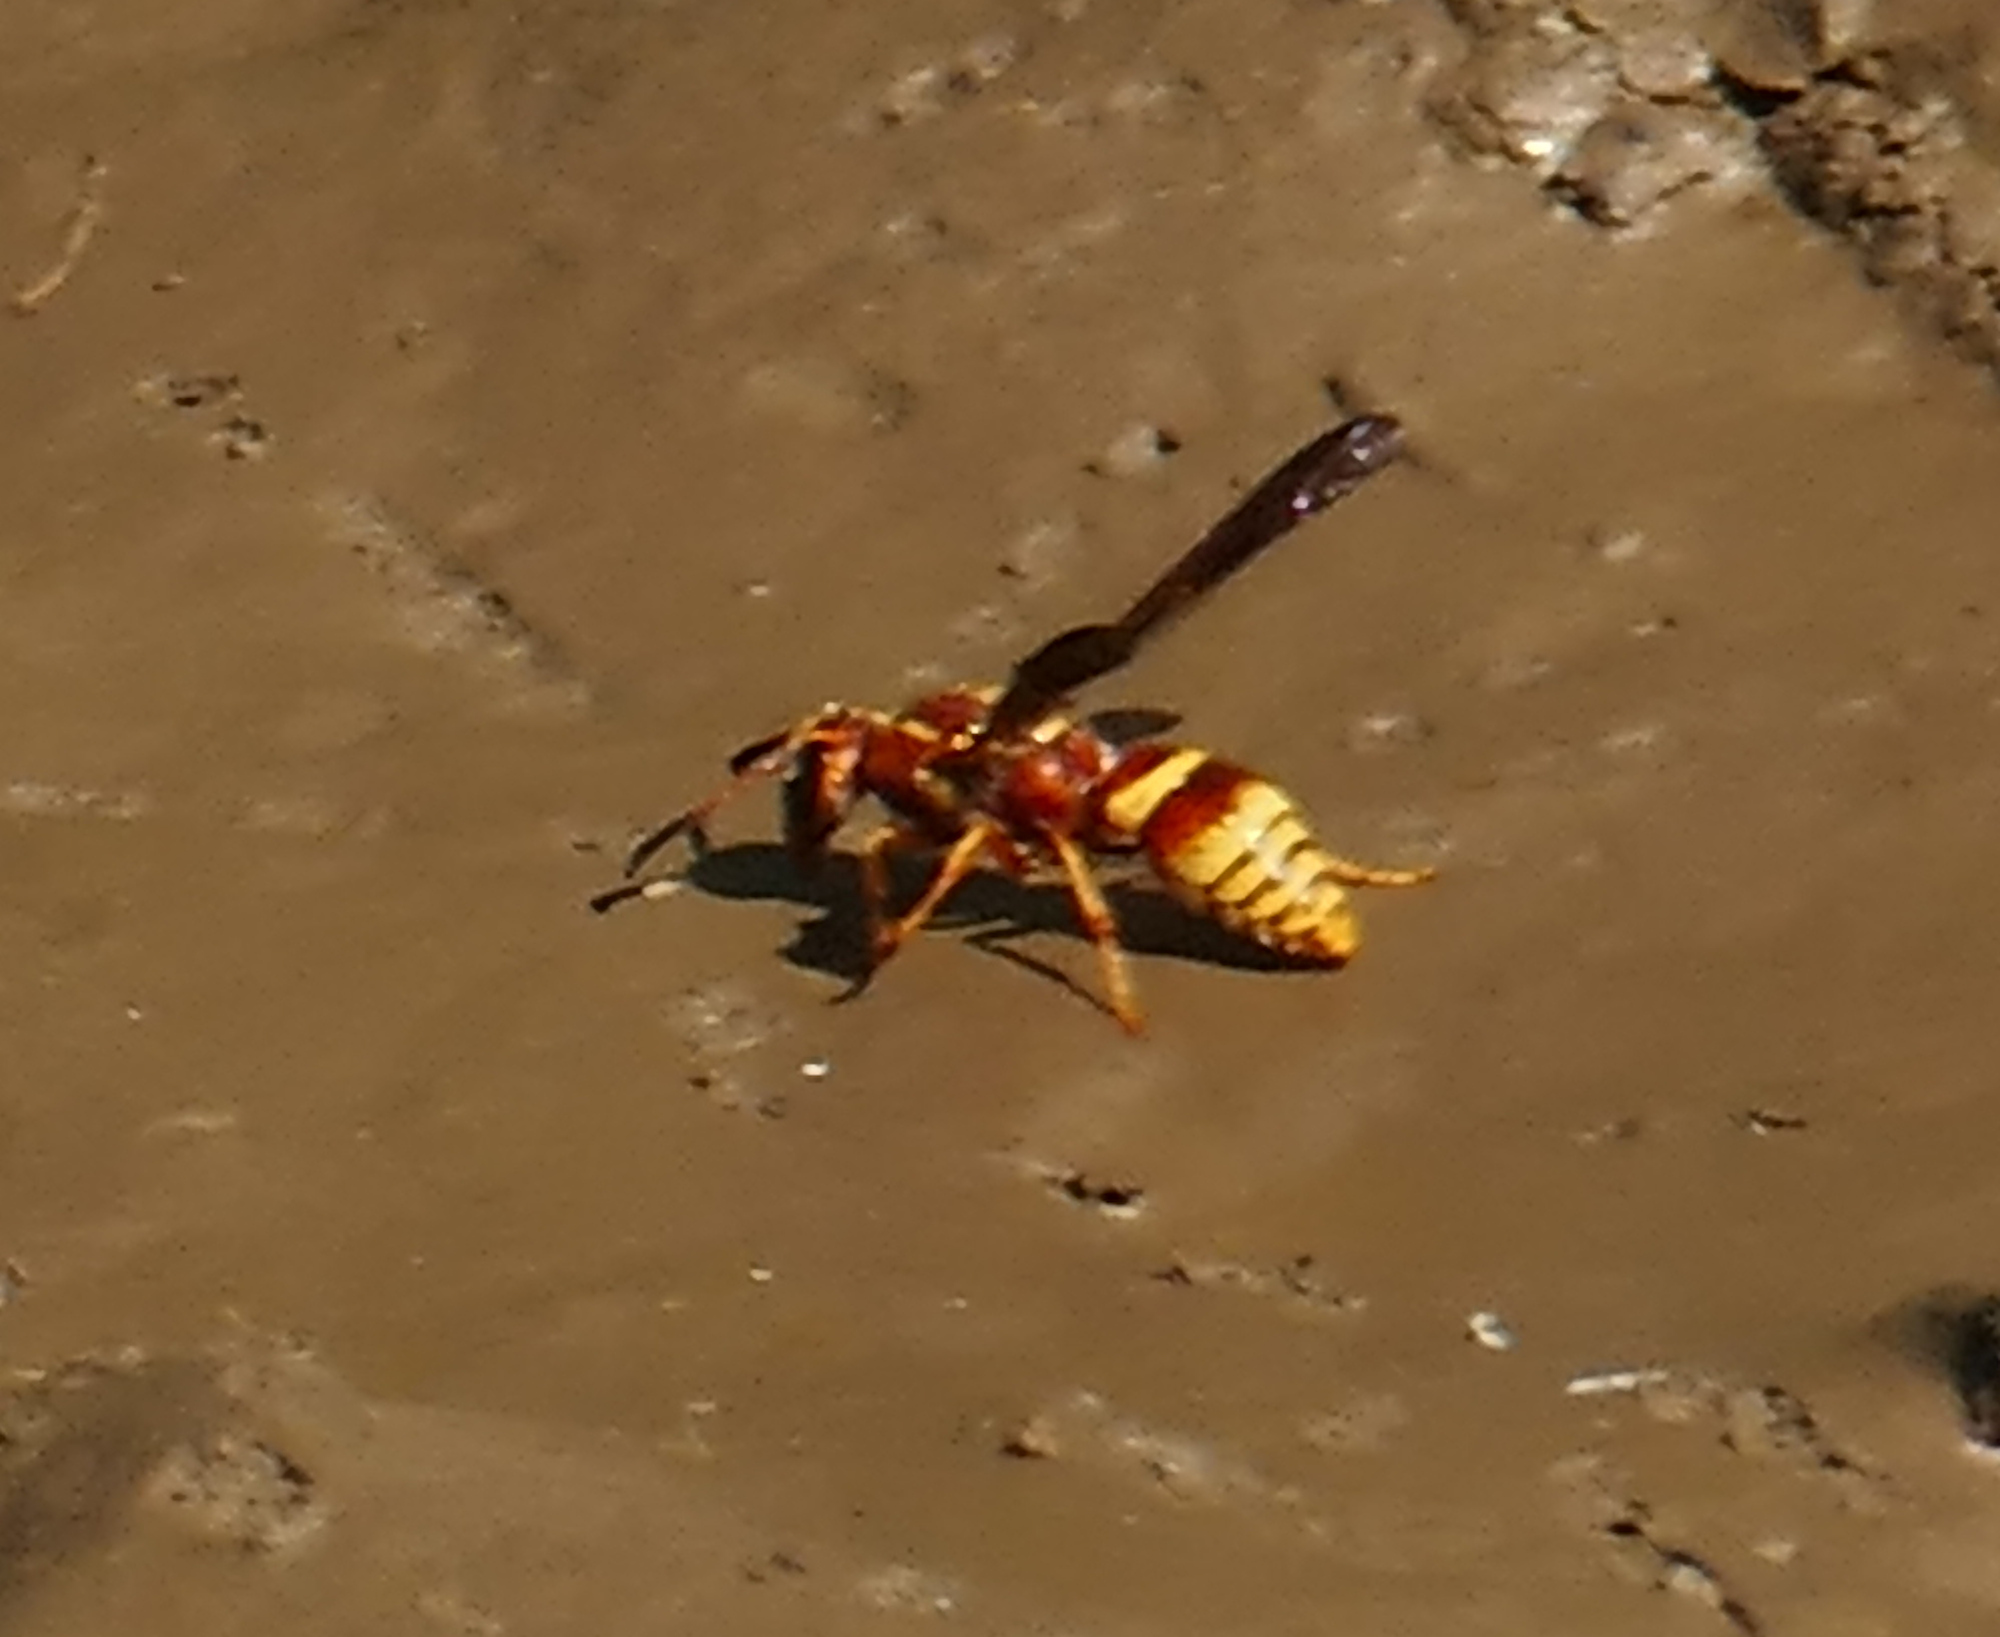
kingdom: Animalia
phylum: Arthropoda
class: Insecta
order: Hymenoptera
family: Eumenidae
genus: Euodynerus
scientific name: Euodynerus pratensis
